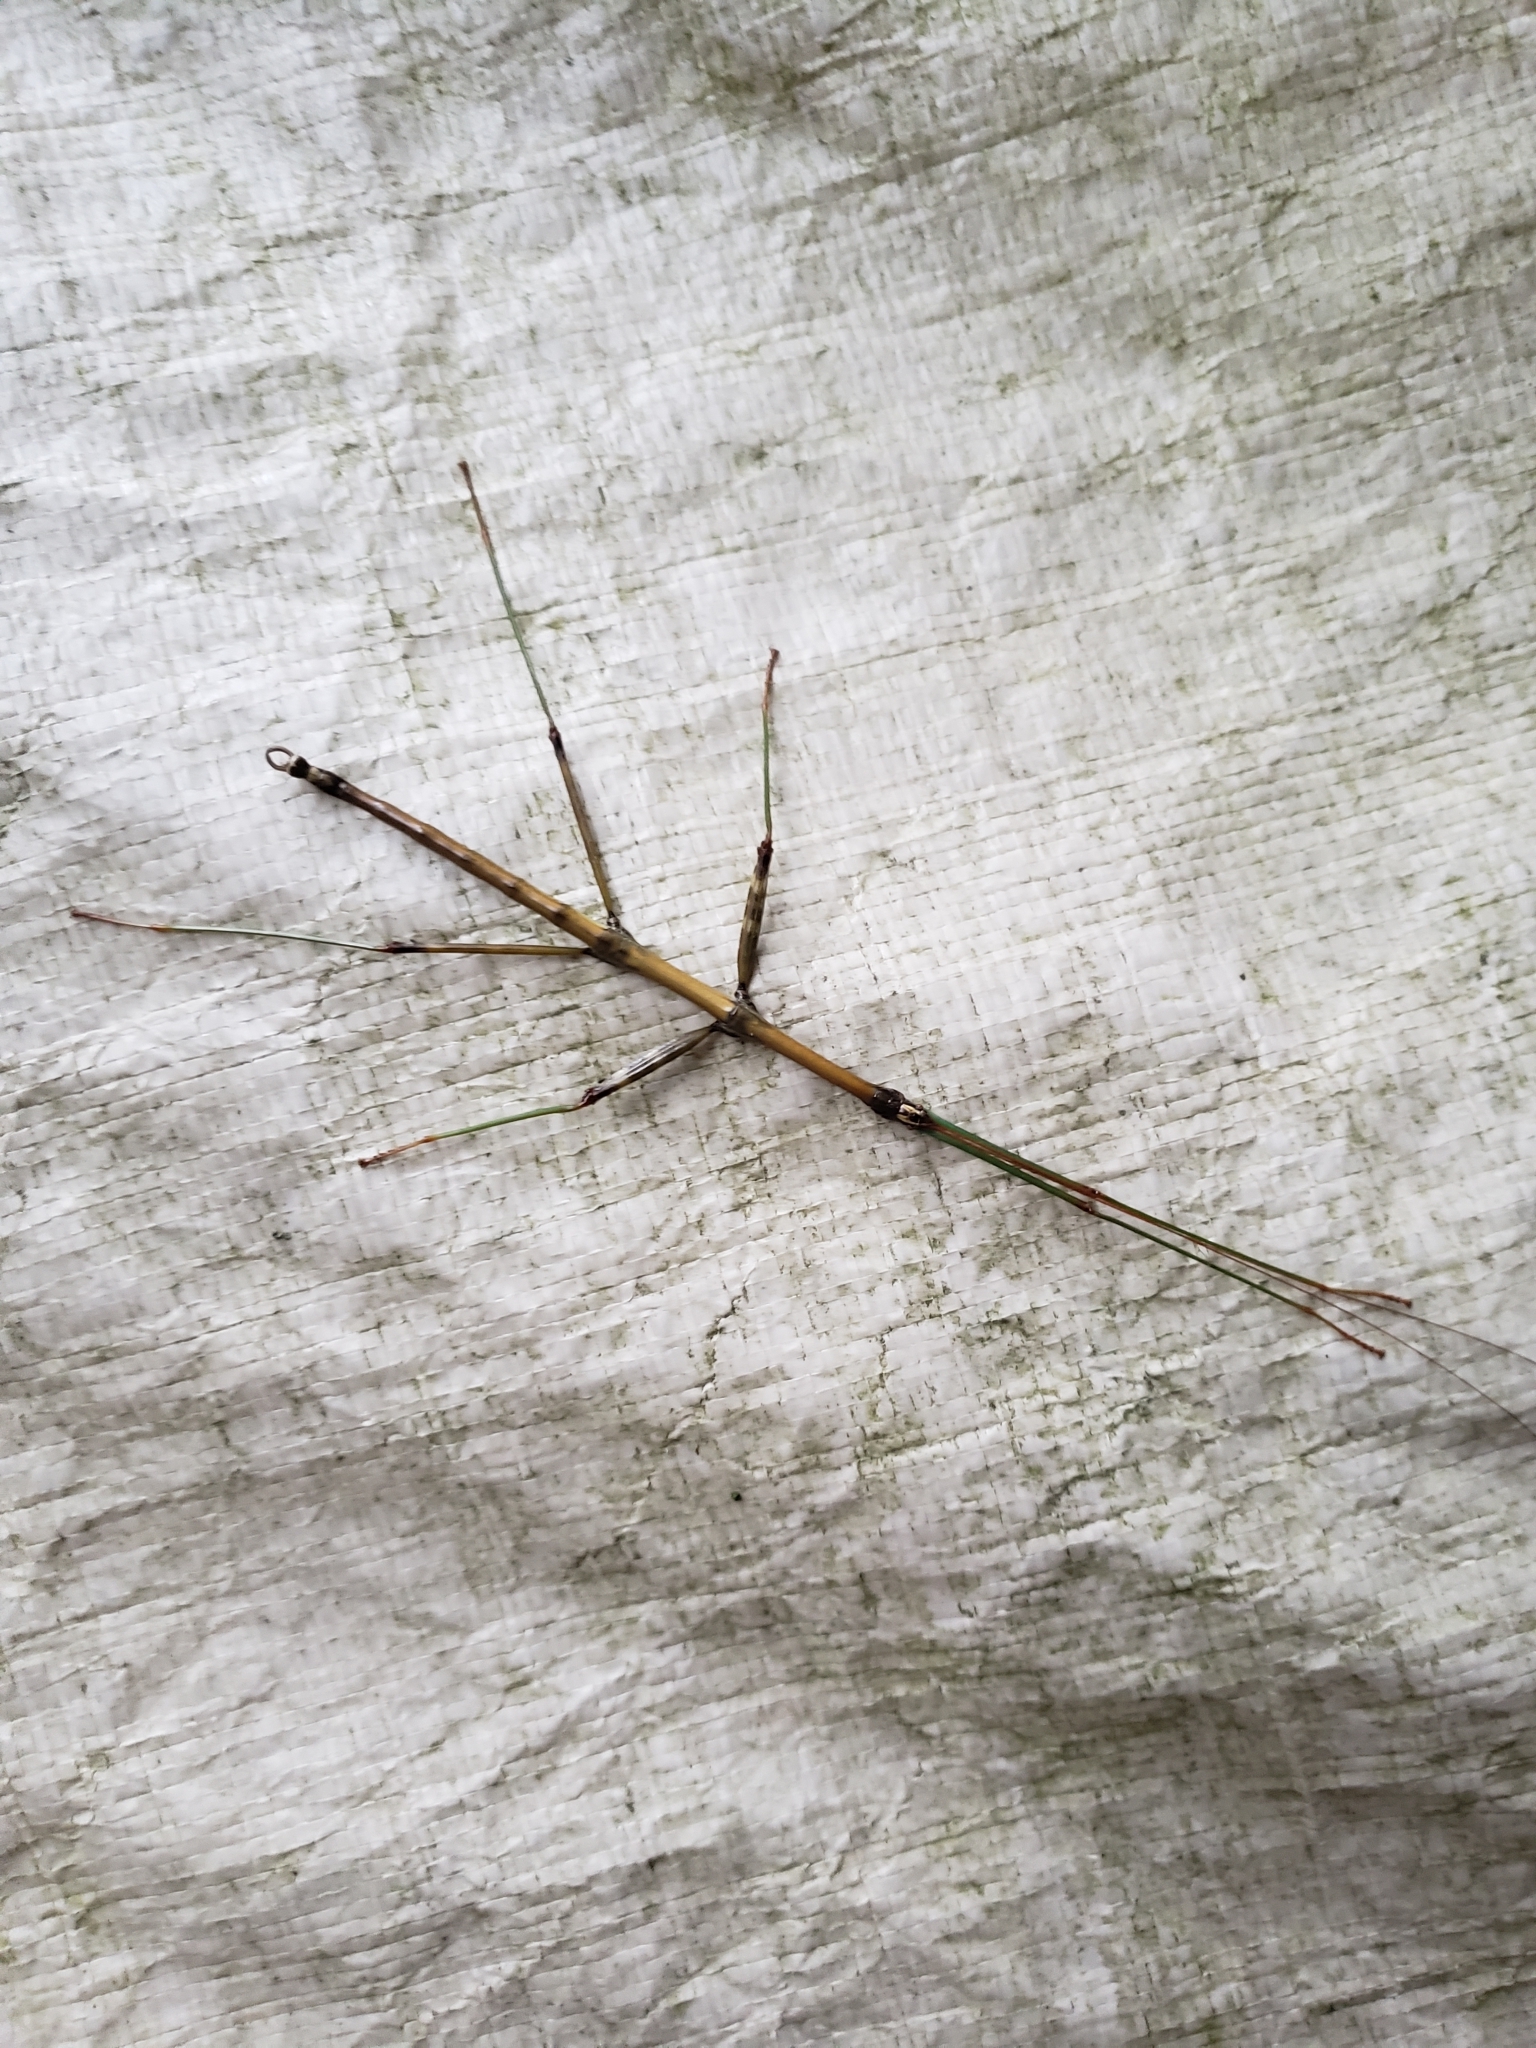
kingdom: Animalia
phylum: Arthropoda
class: Insecta
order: Phasmida
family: Diapheromeridae
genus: Diapheromera
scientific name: Diapheromera femorata
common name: Common american walkingstick
